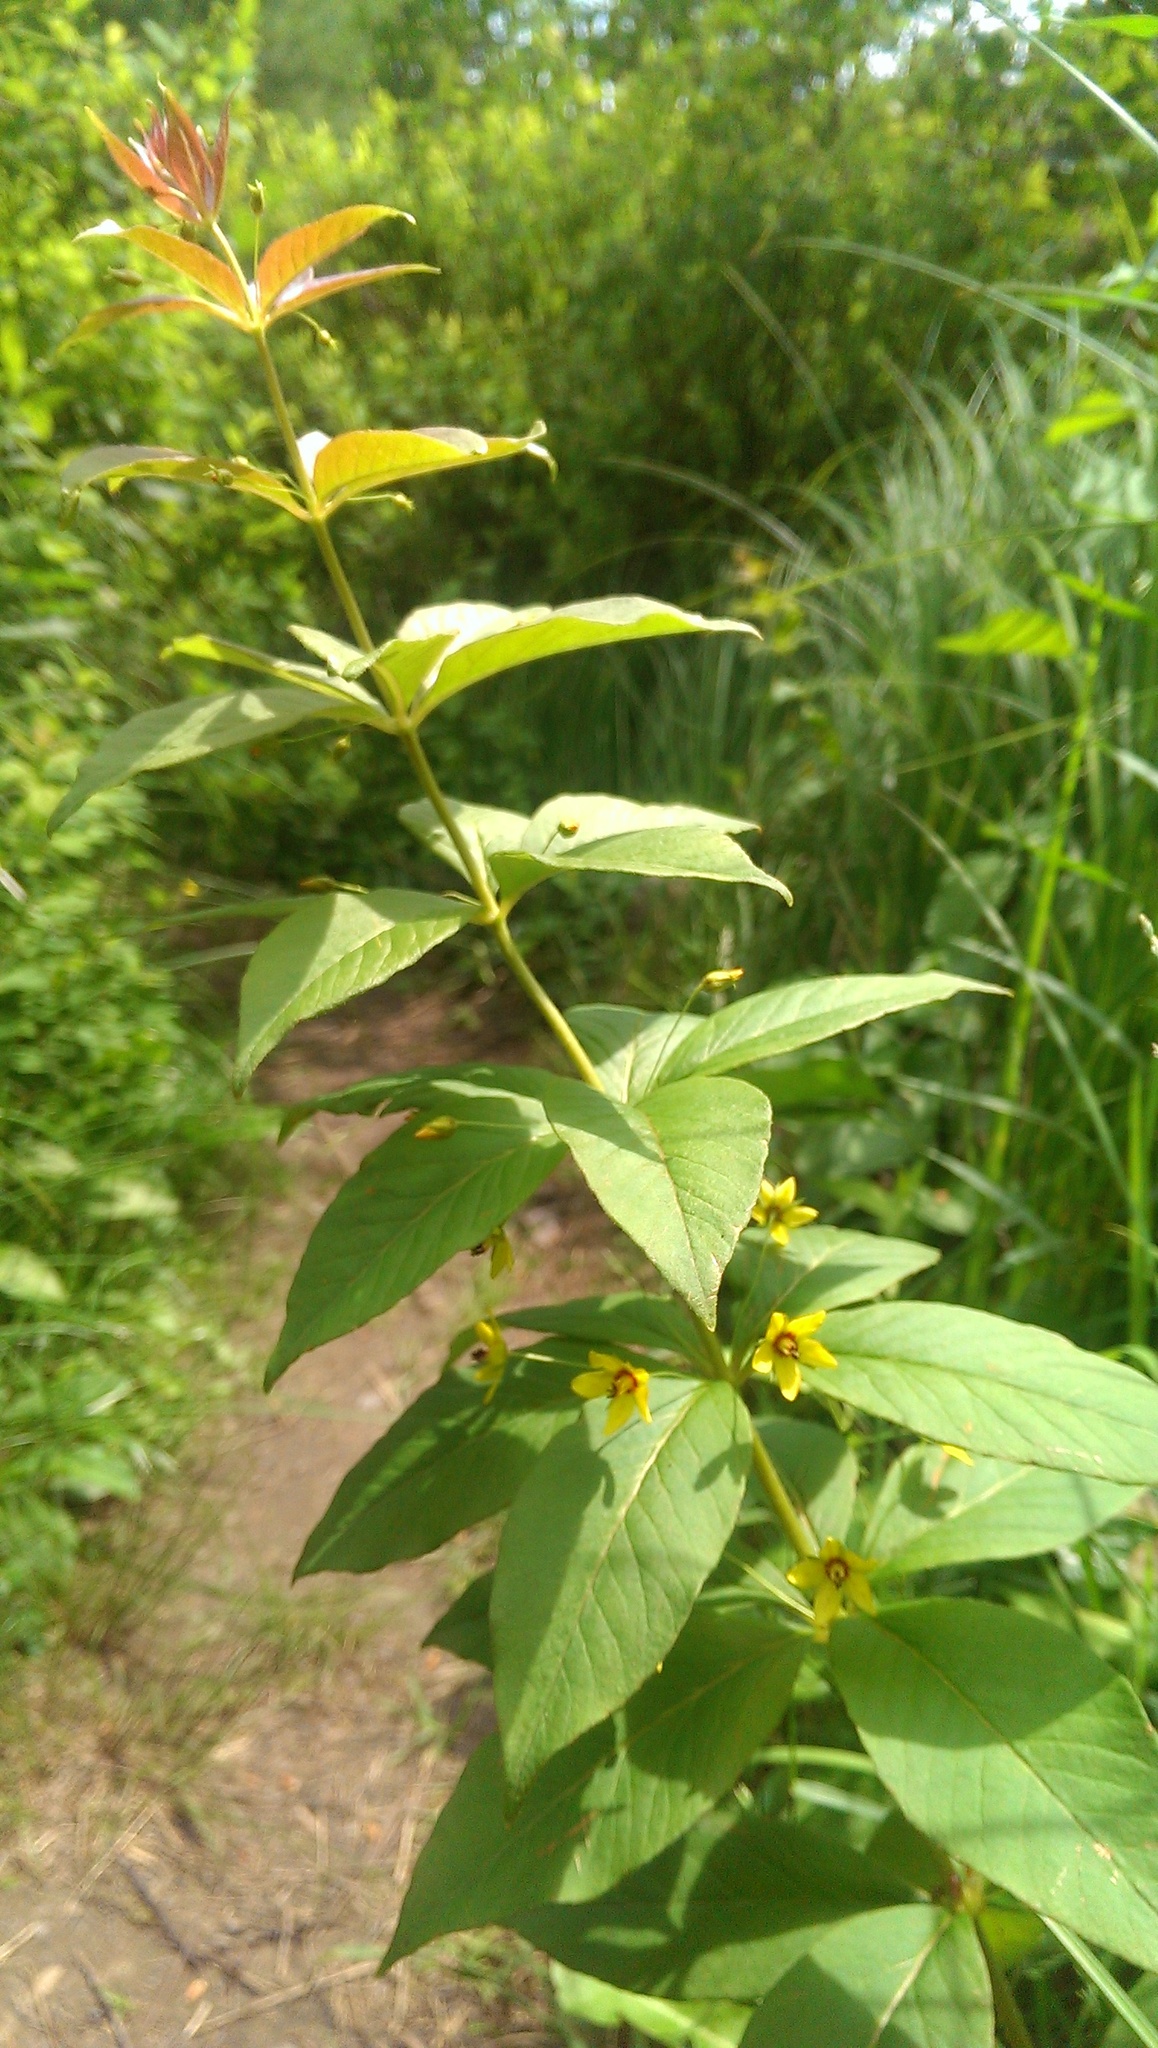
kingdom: Plantae
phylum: Tracheophyta
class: Magnoliopsida
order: Ericales
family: Primulaceae
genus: Lysimachia
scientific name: Lysimachia quadrifolia
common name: Whorled loosestrife
